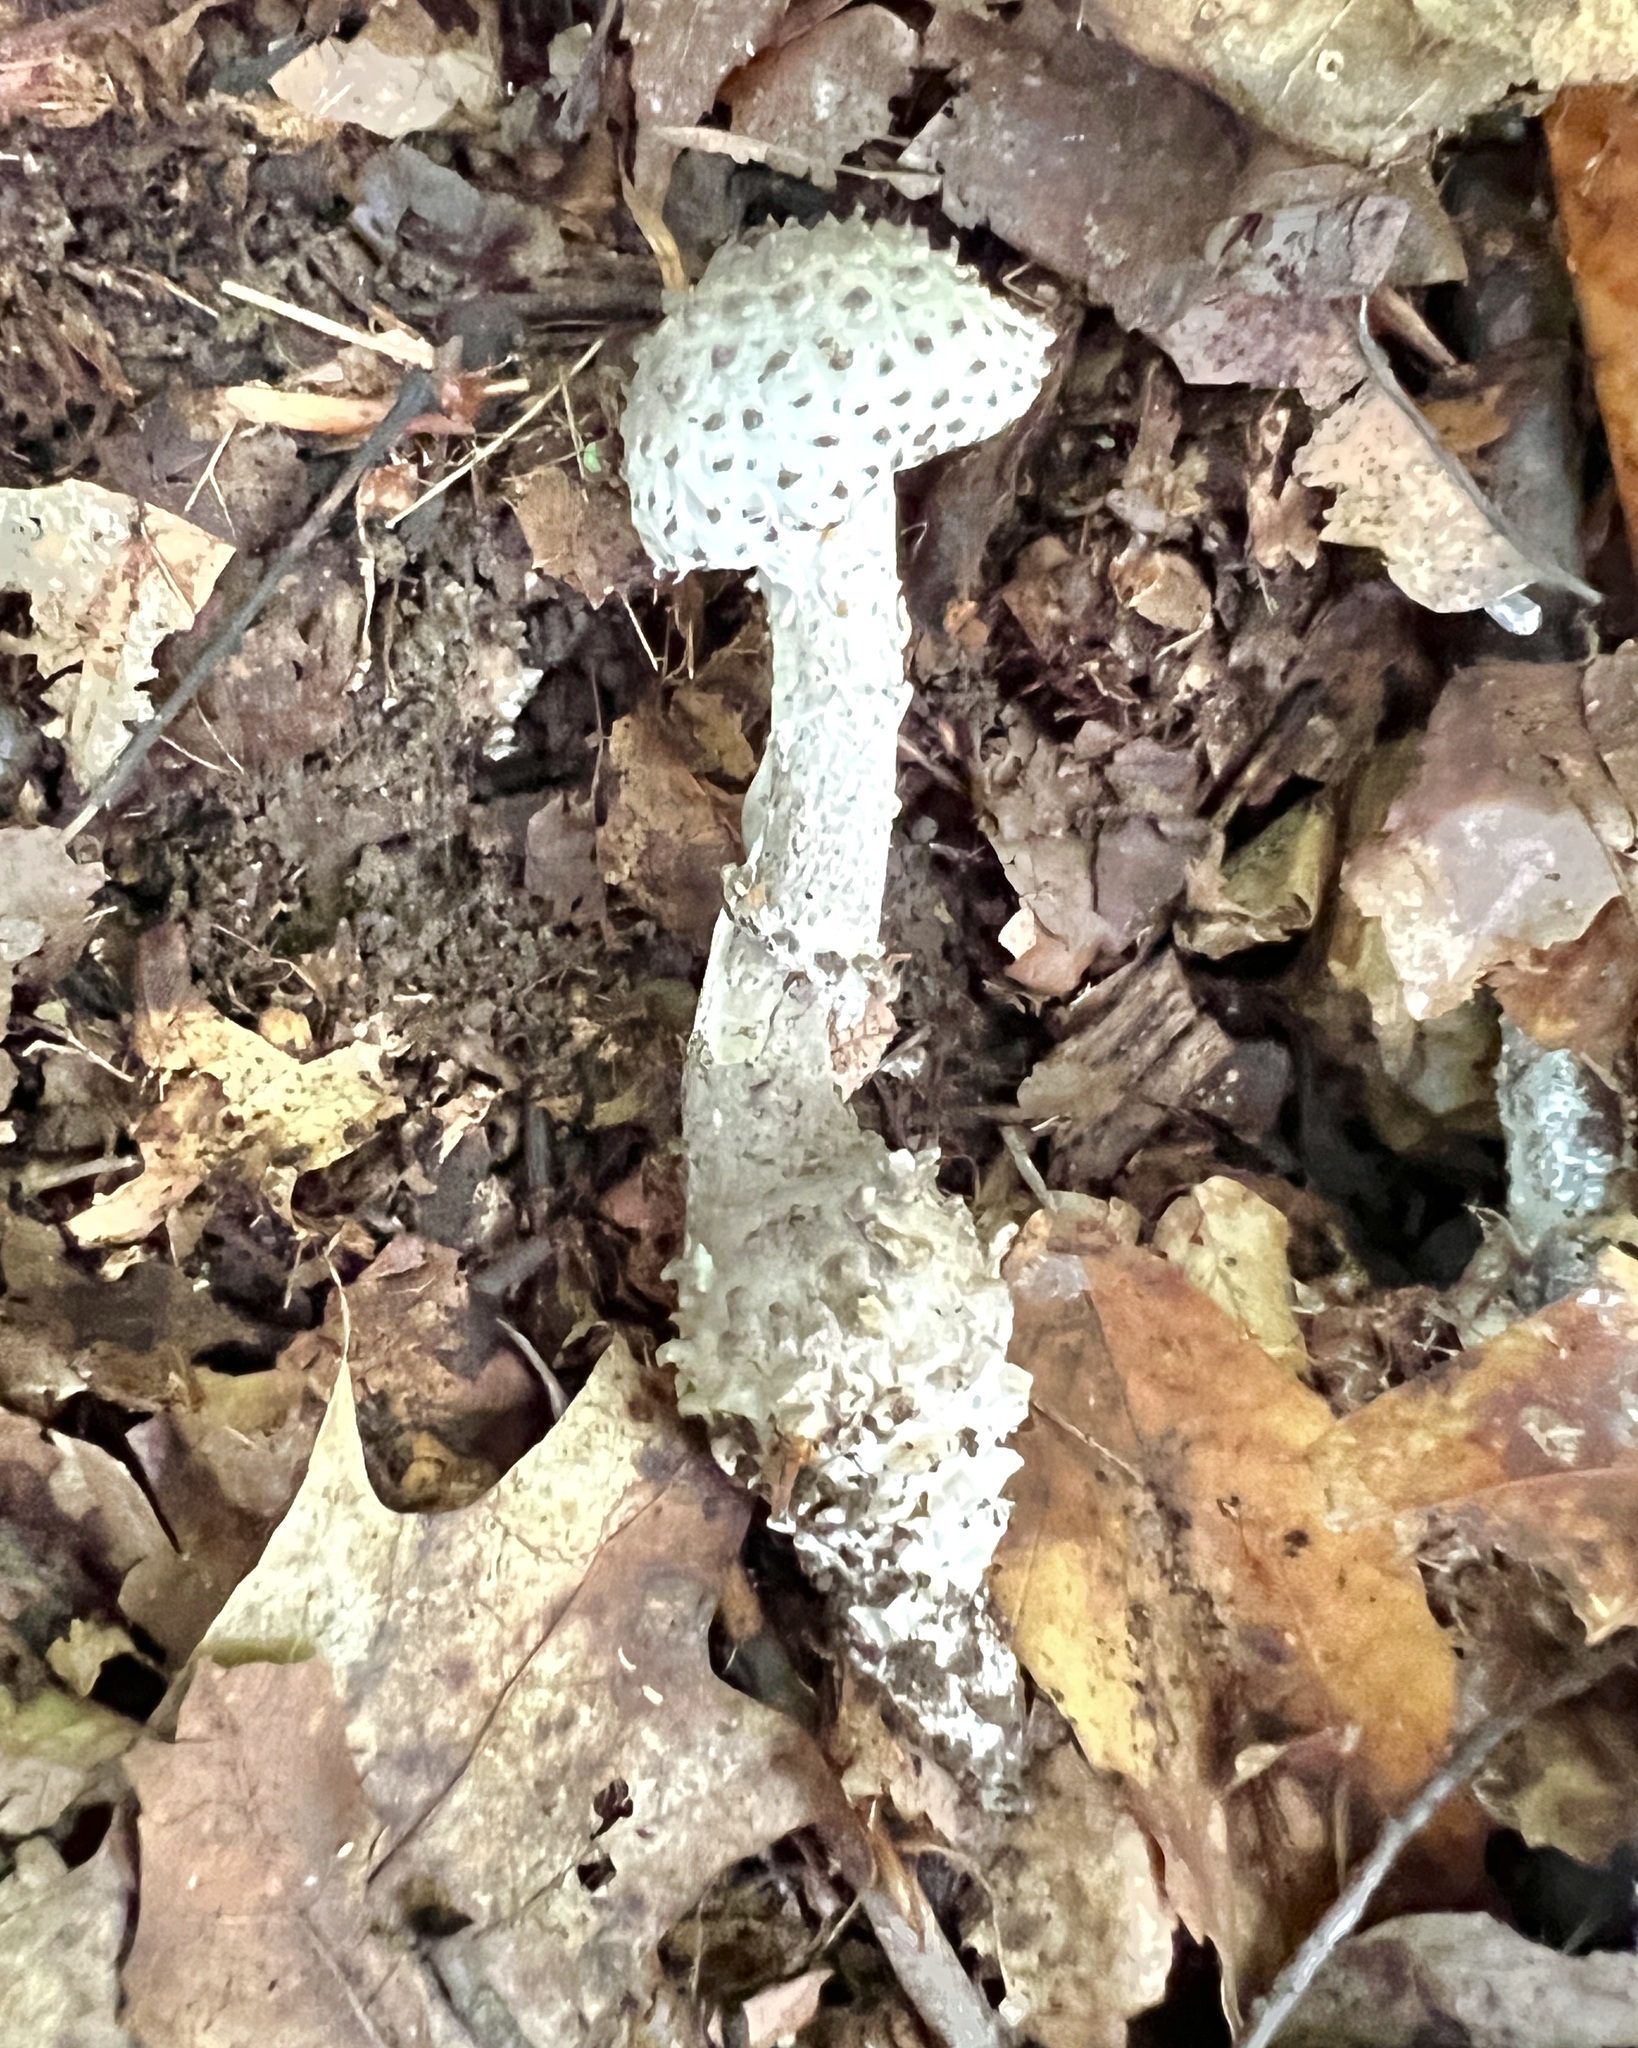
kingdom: Fungi
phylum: Basidiomycota
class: Agaricomycetes
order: Agaricales
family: Amanitaceae
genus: Amanita
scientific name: Amanita onusta
